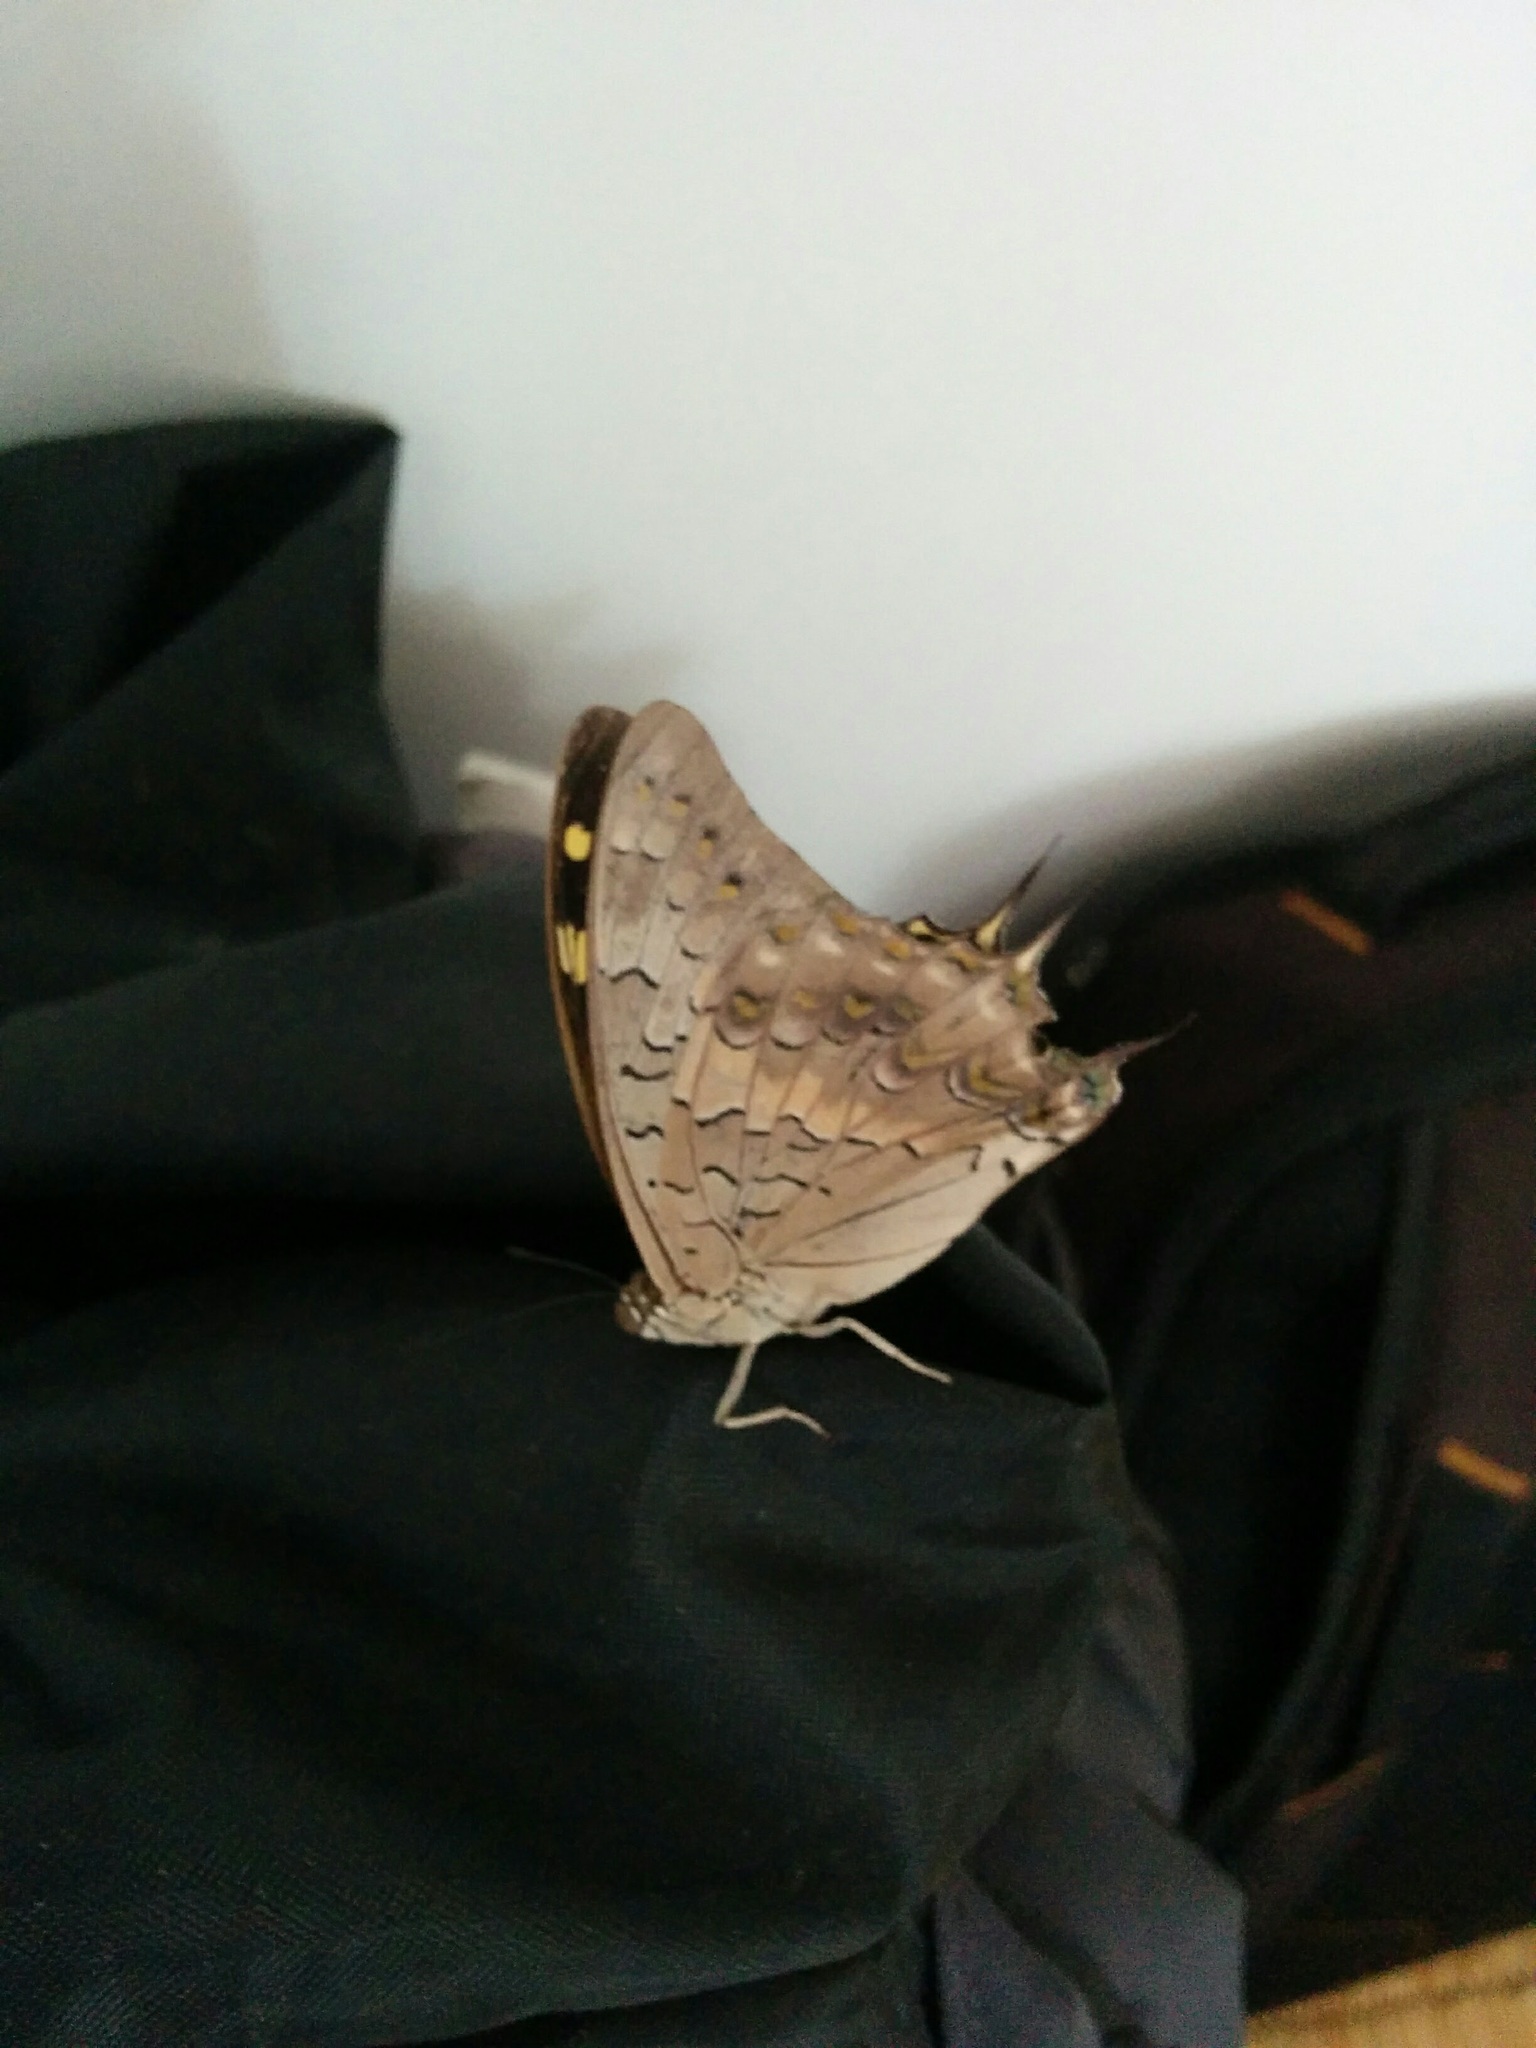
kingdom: Animalia
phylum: Arthropoda
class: Insecta
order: Lepidoptera
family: Nymphalidae
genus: Charaxes
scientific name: Charaxes solon
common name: Black rajah
